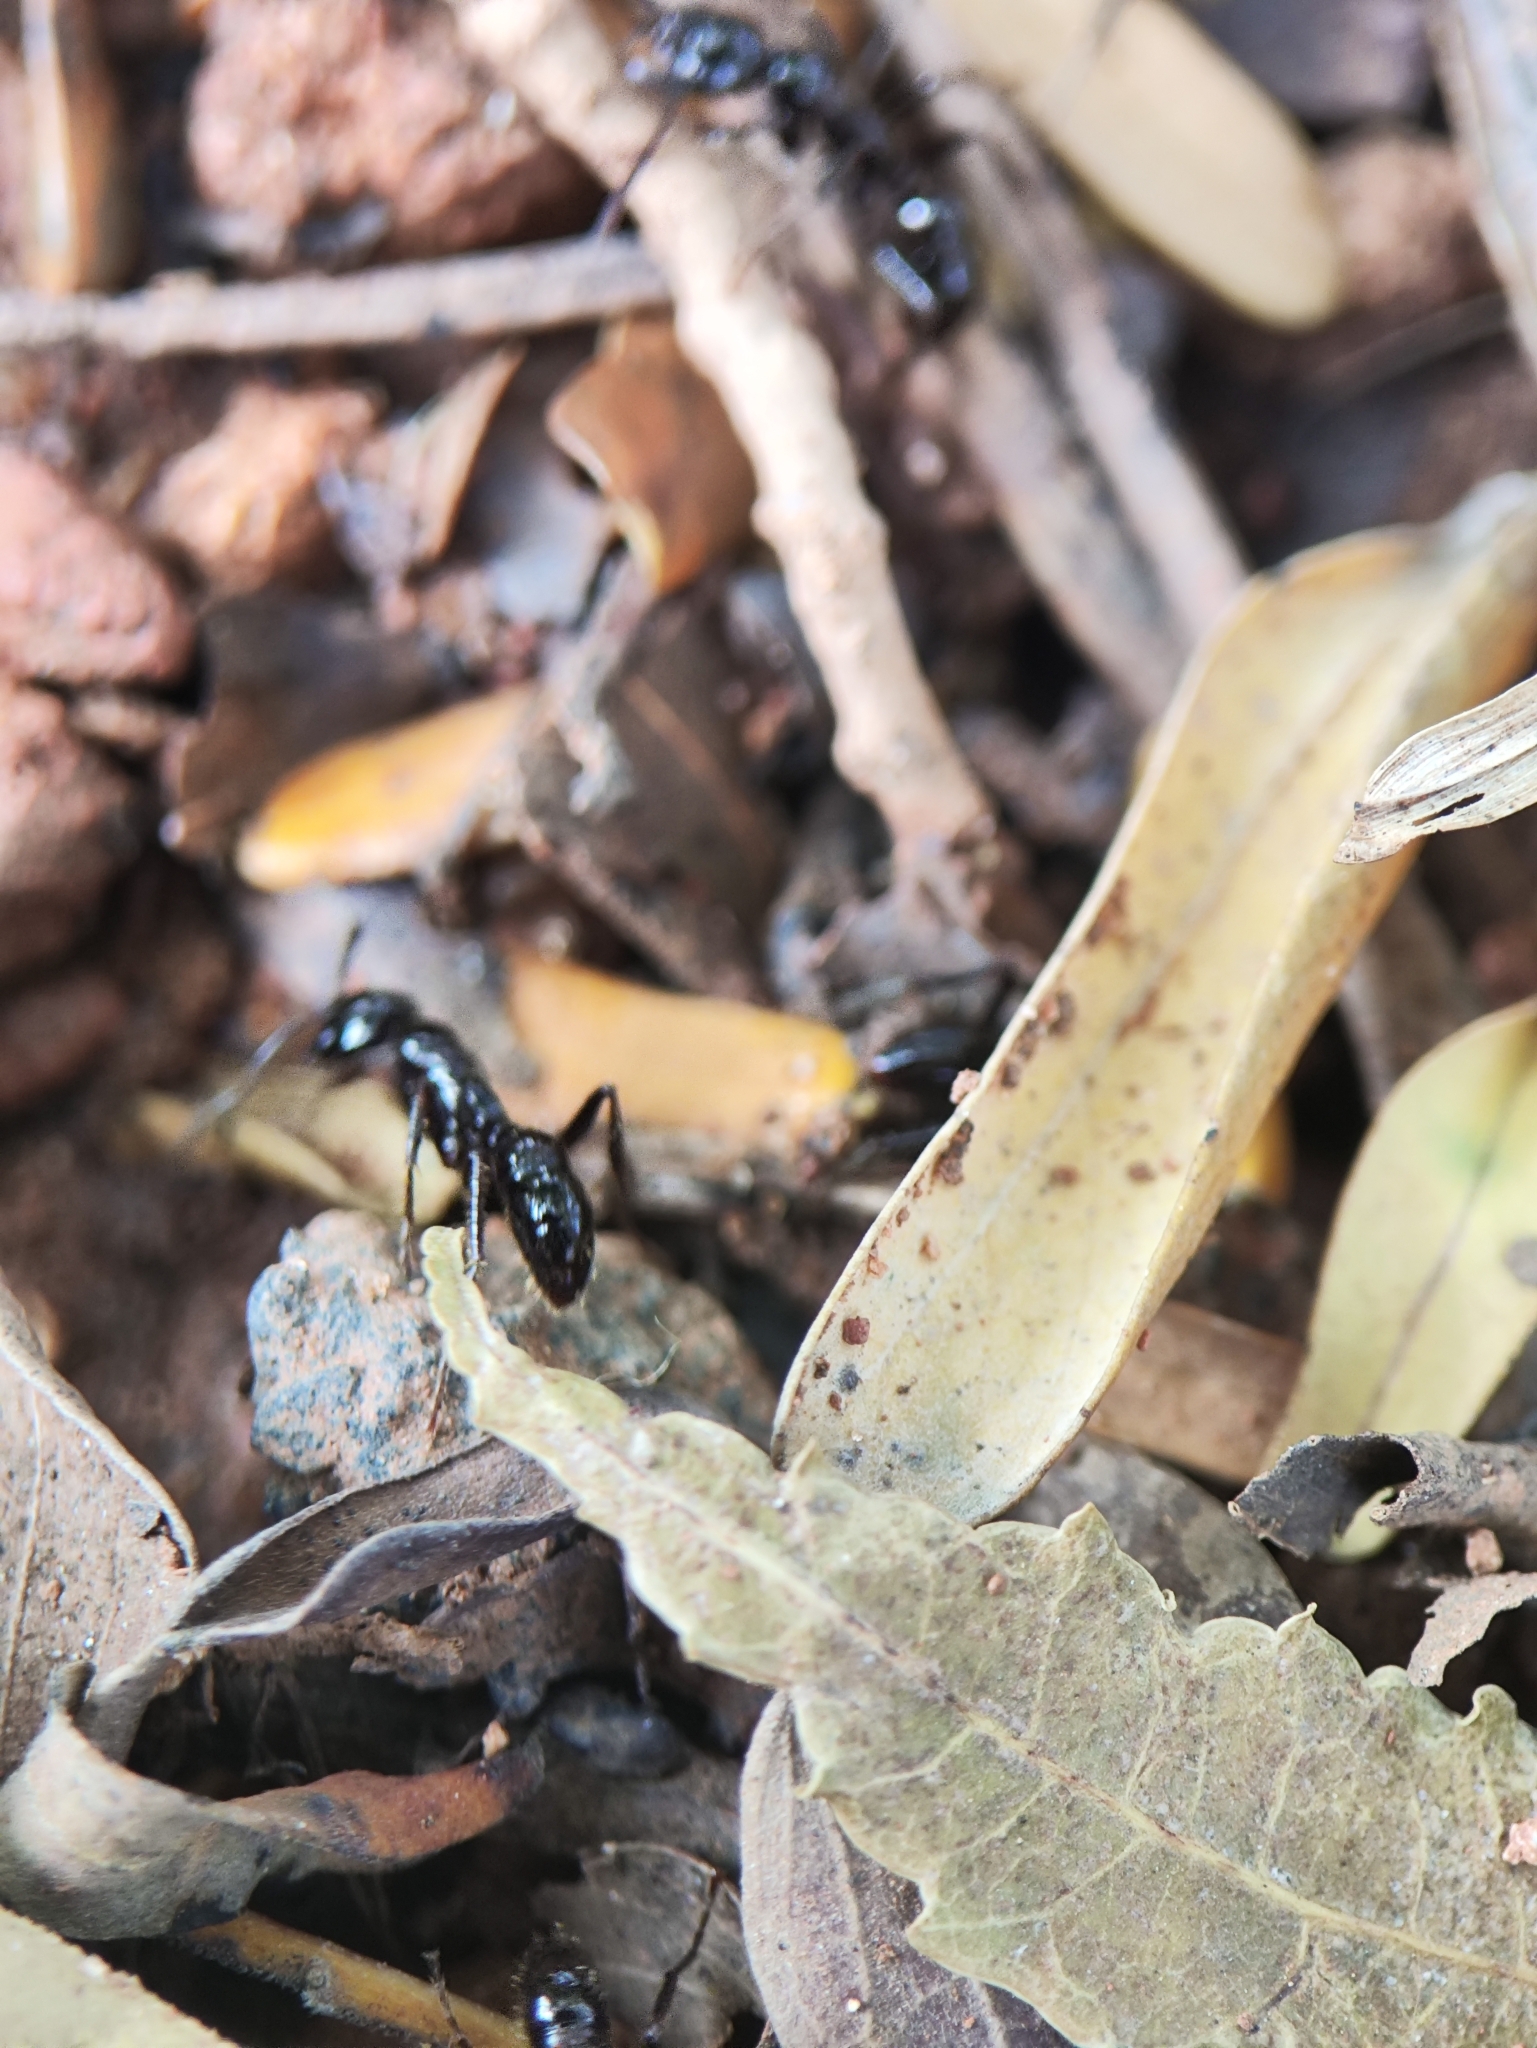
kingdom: Animalia
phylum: Arthropoda
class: Insecta
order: Hymenoptera
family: Formicidae
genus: Leptogenys
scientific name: Leptogenys processionalis
